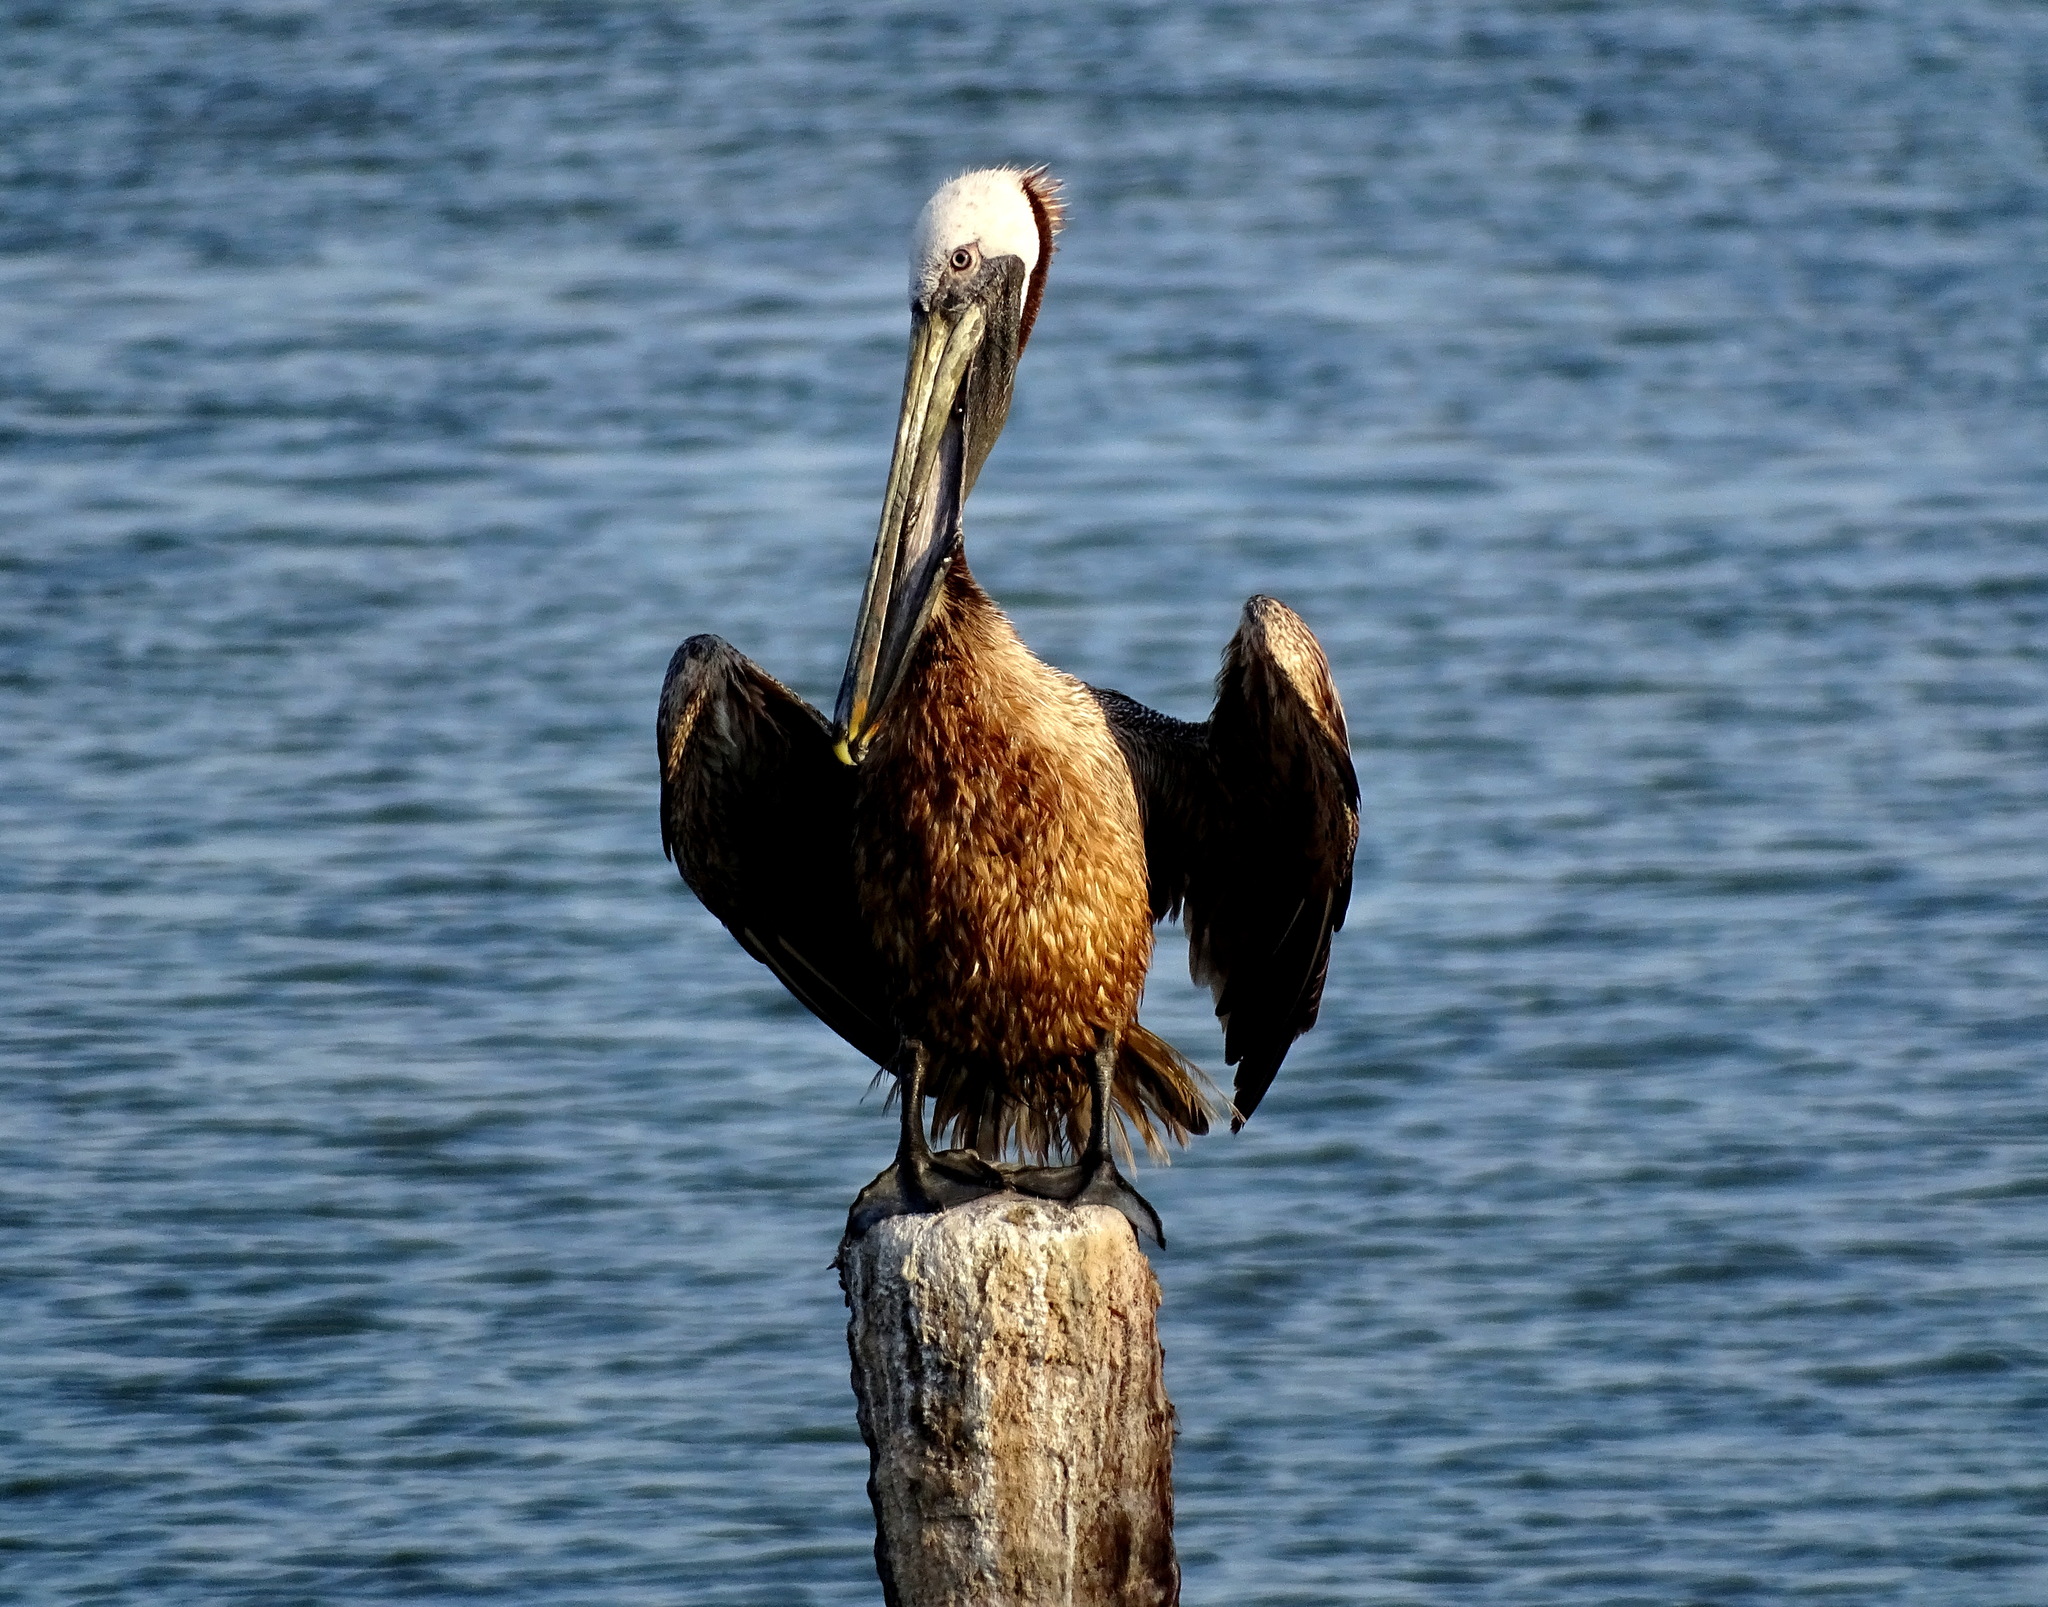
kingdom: Animalia
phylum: Chordata
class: Aves
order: Pelecaniformes
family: Pelecanidae
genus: Pelecanus
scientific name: Pelecanus occidentalis
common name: Brown pelican
